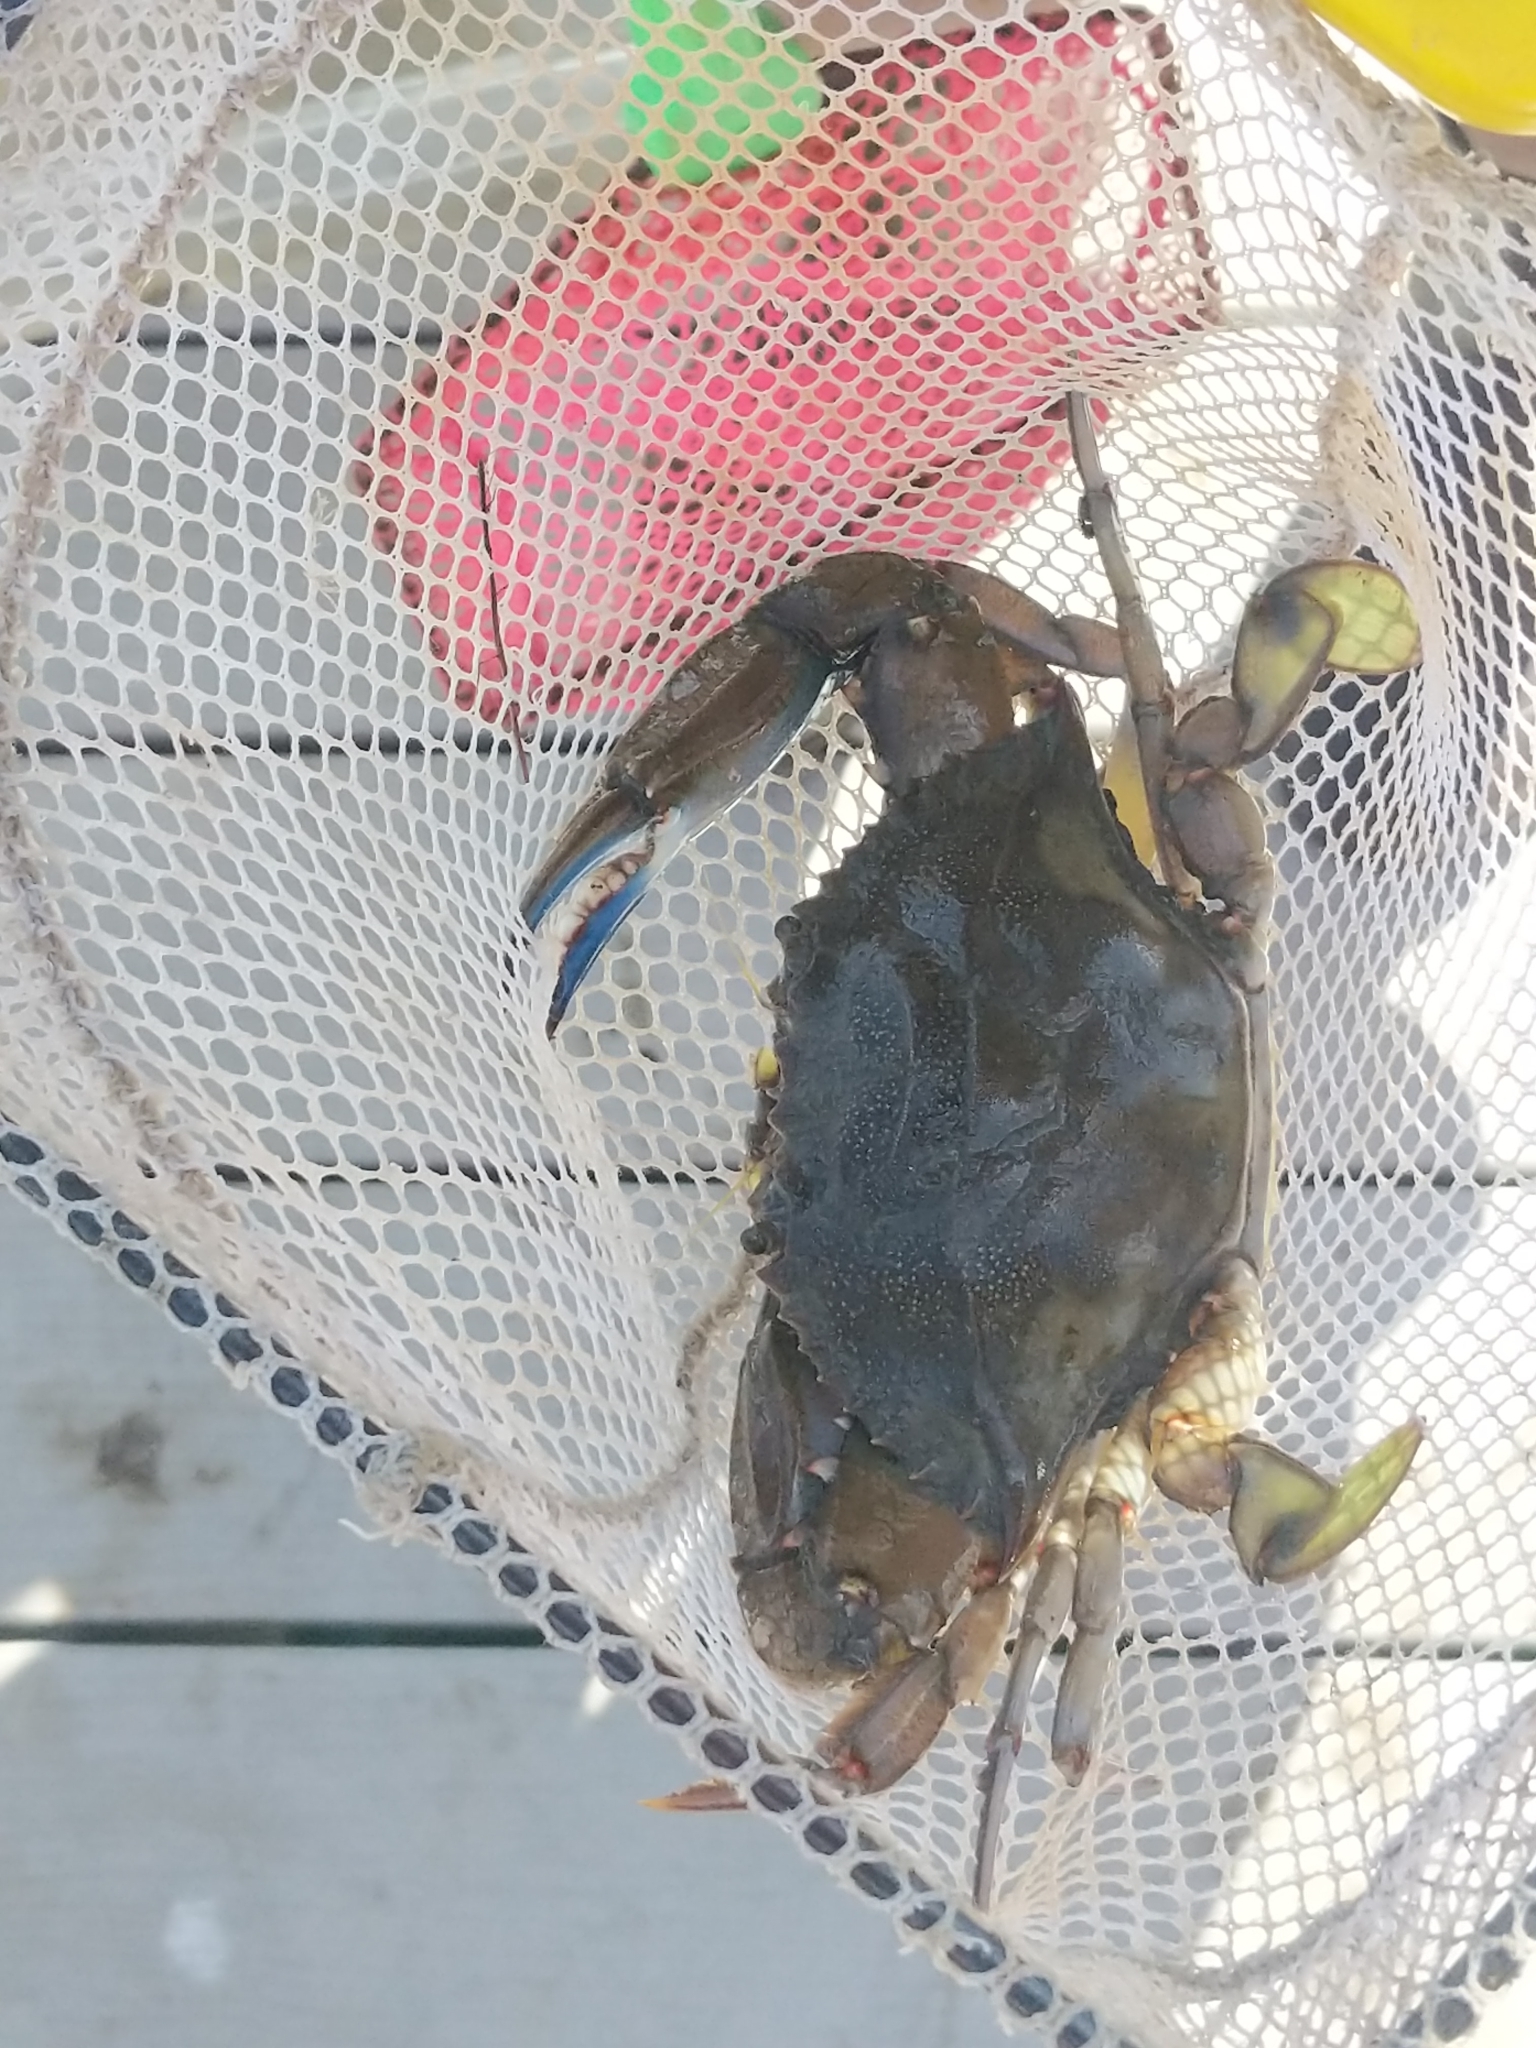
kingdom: Animalia
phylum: Arthropoda
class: Malacostraca
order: Decapoda
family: Portunidae
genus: Callinectes
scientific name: Callinectes sapidus
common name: Blue crab
